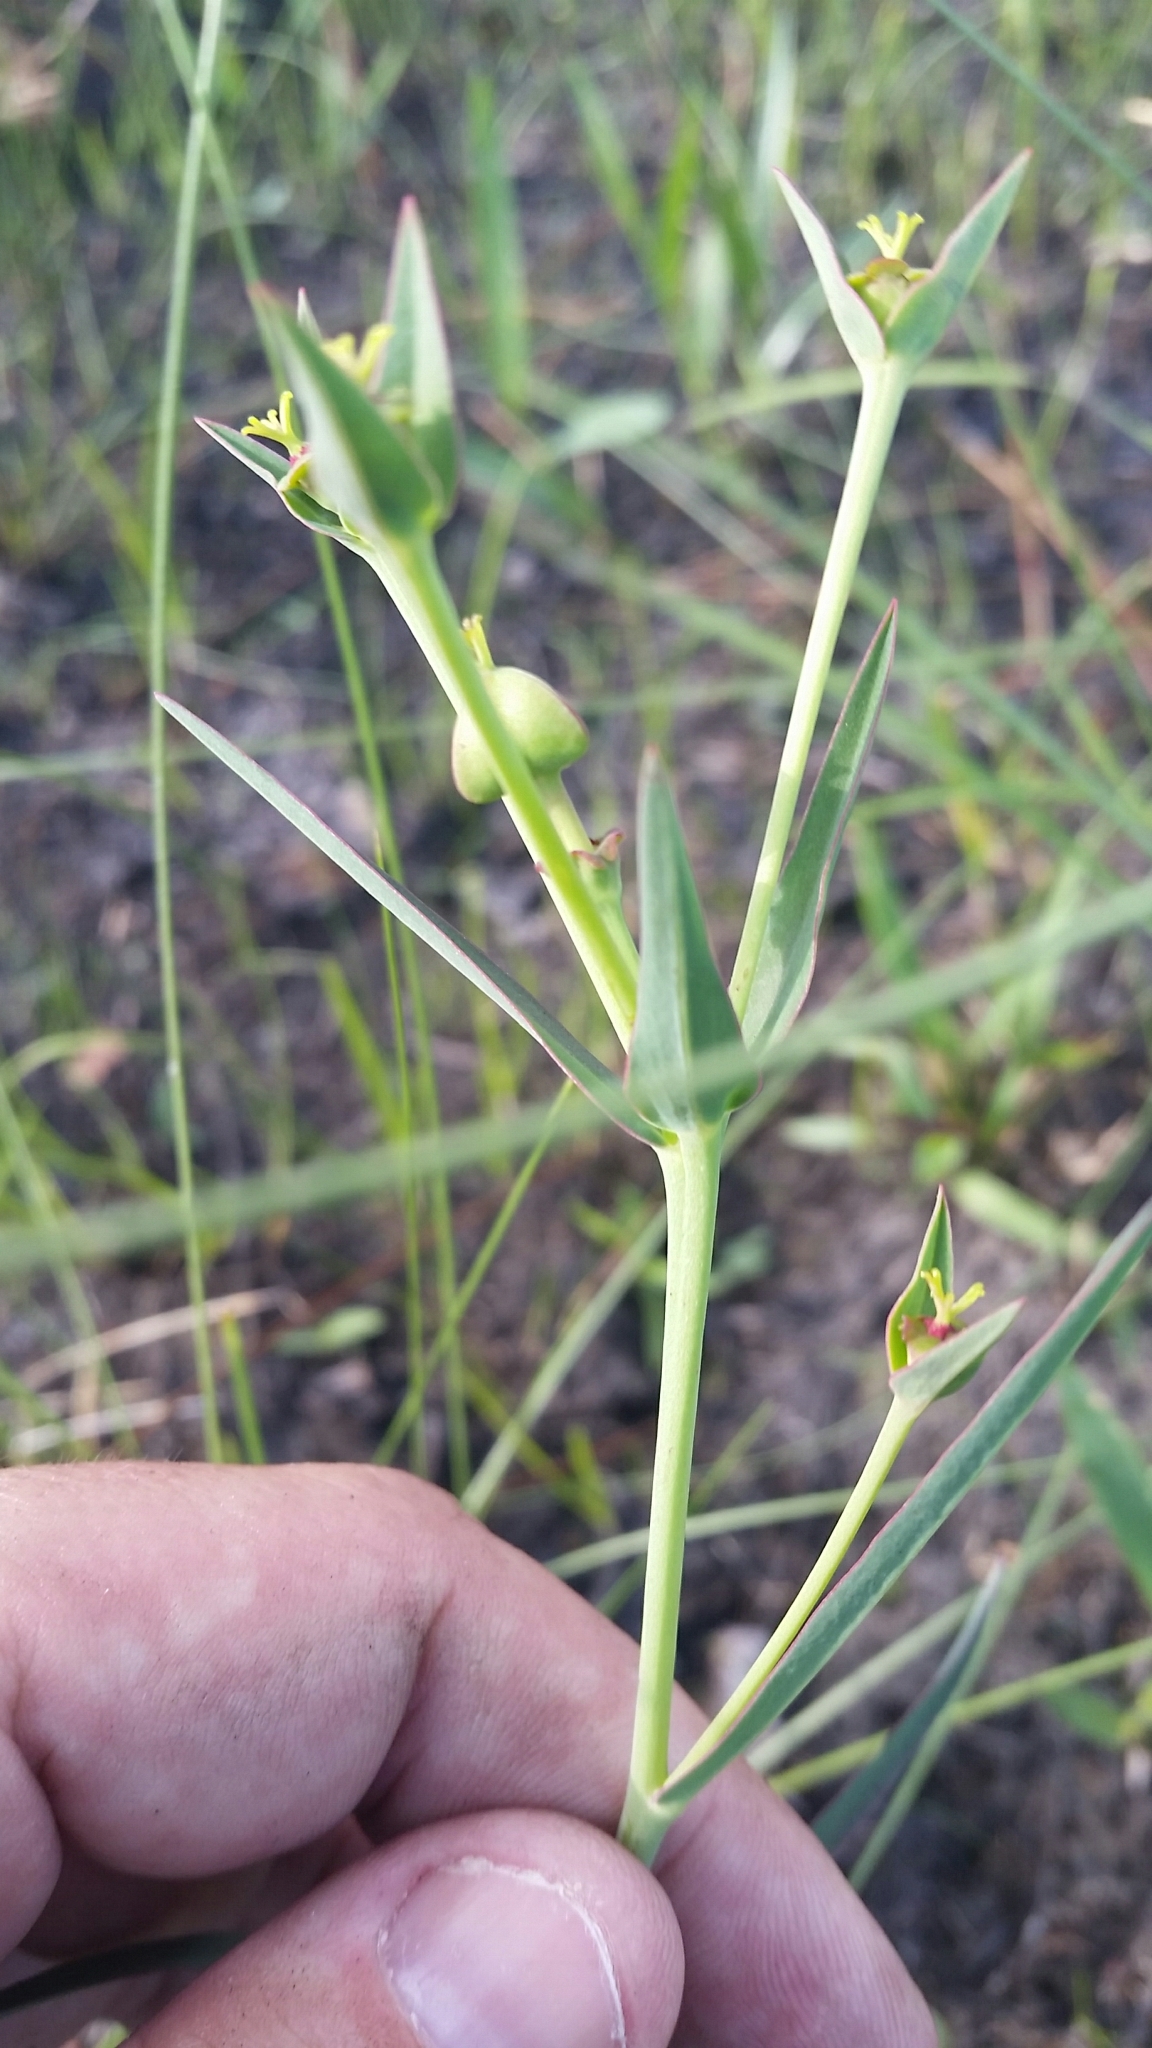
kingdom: Plantae
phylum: Tracheophyta
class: Magnoliopsida
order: Malpighiales
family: Euphorbiaceae
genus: Euphorbia
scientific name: Euphorbia inundata
